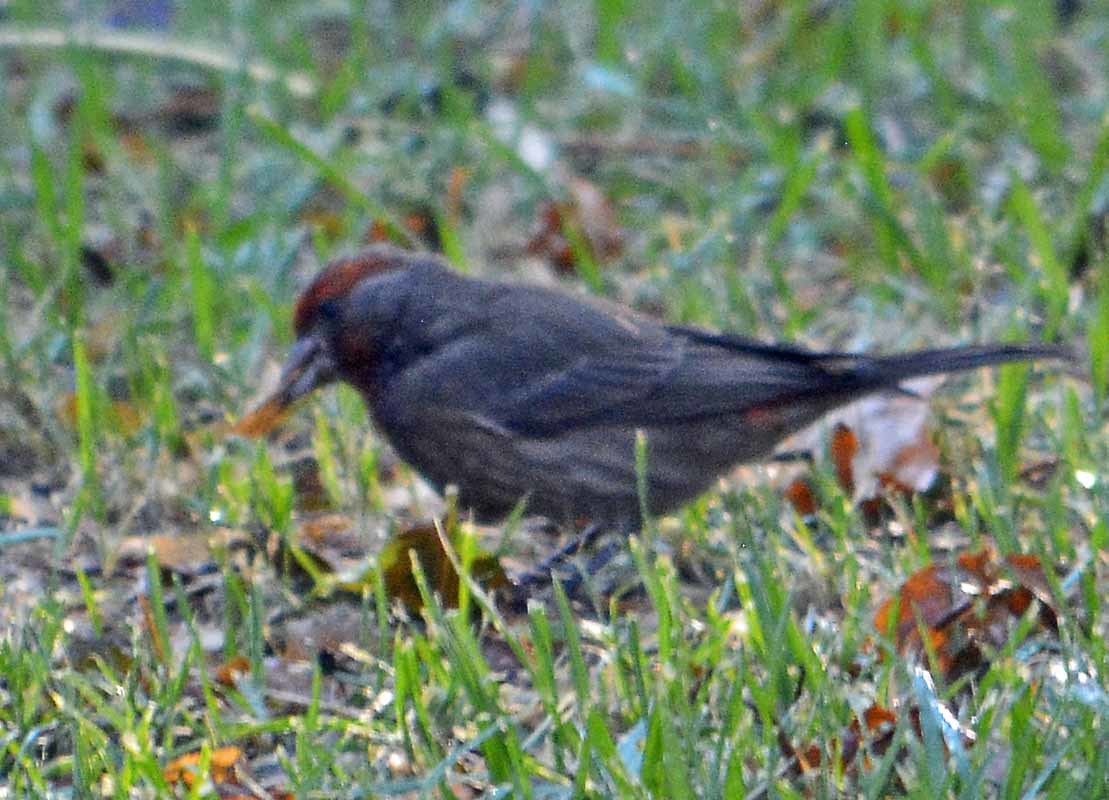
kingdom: Animalia
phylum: Chordata
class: Aves
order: Passeriformes
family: Fringillidae
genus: Haemorhous
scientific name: Haemorhous mexicanus
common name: House finch
